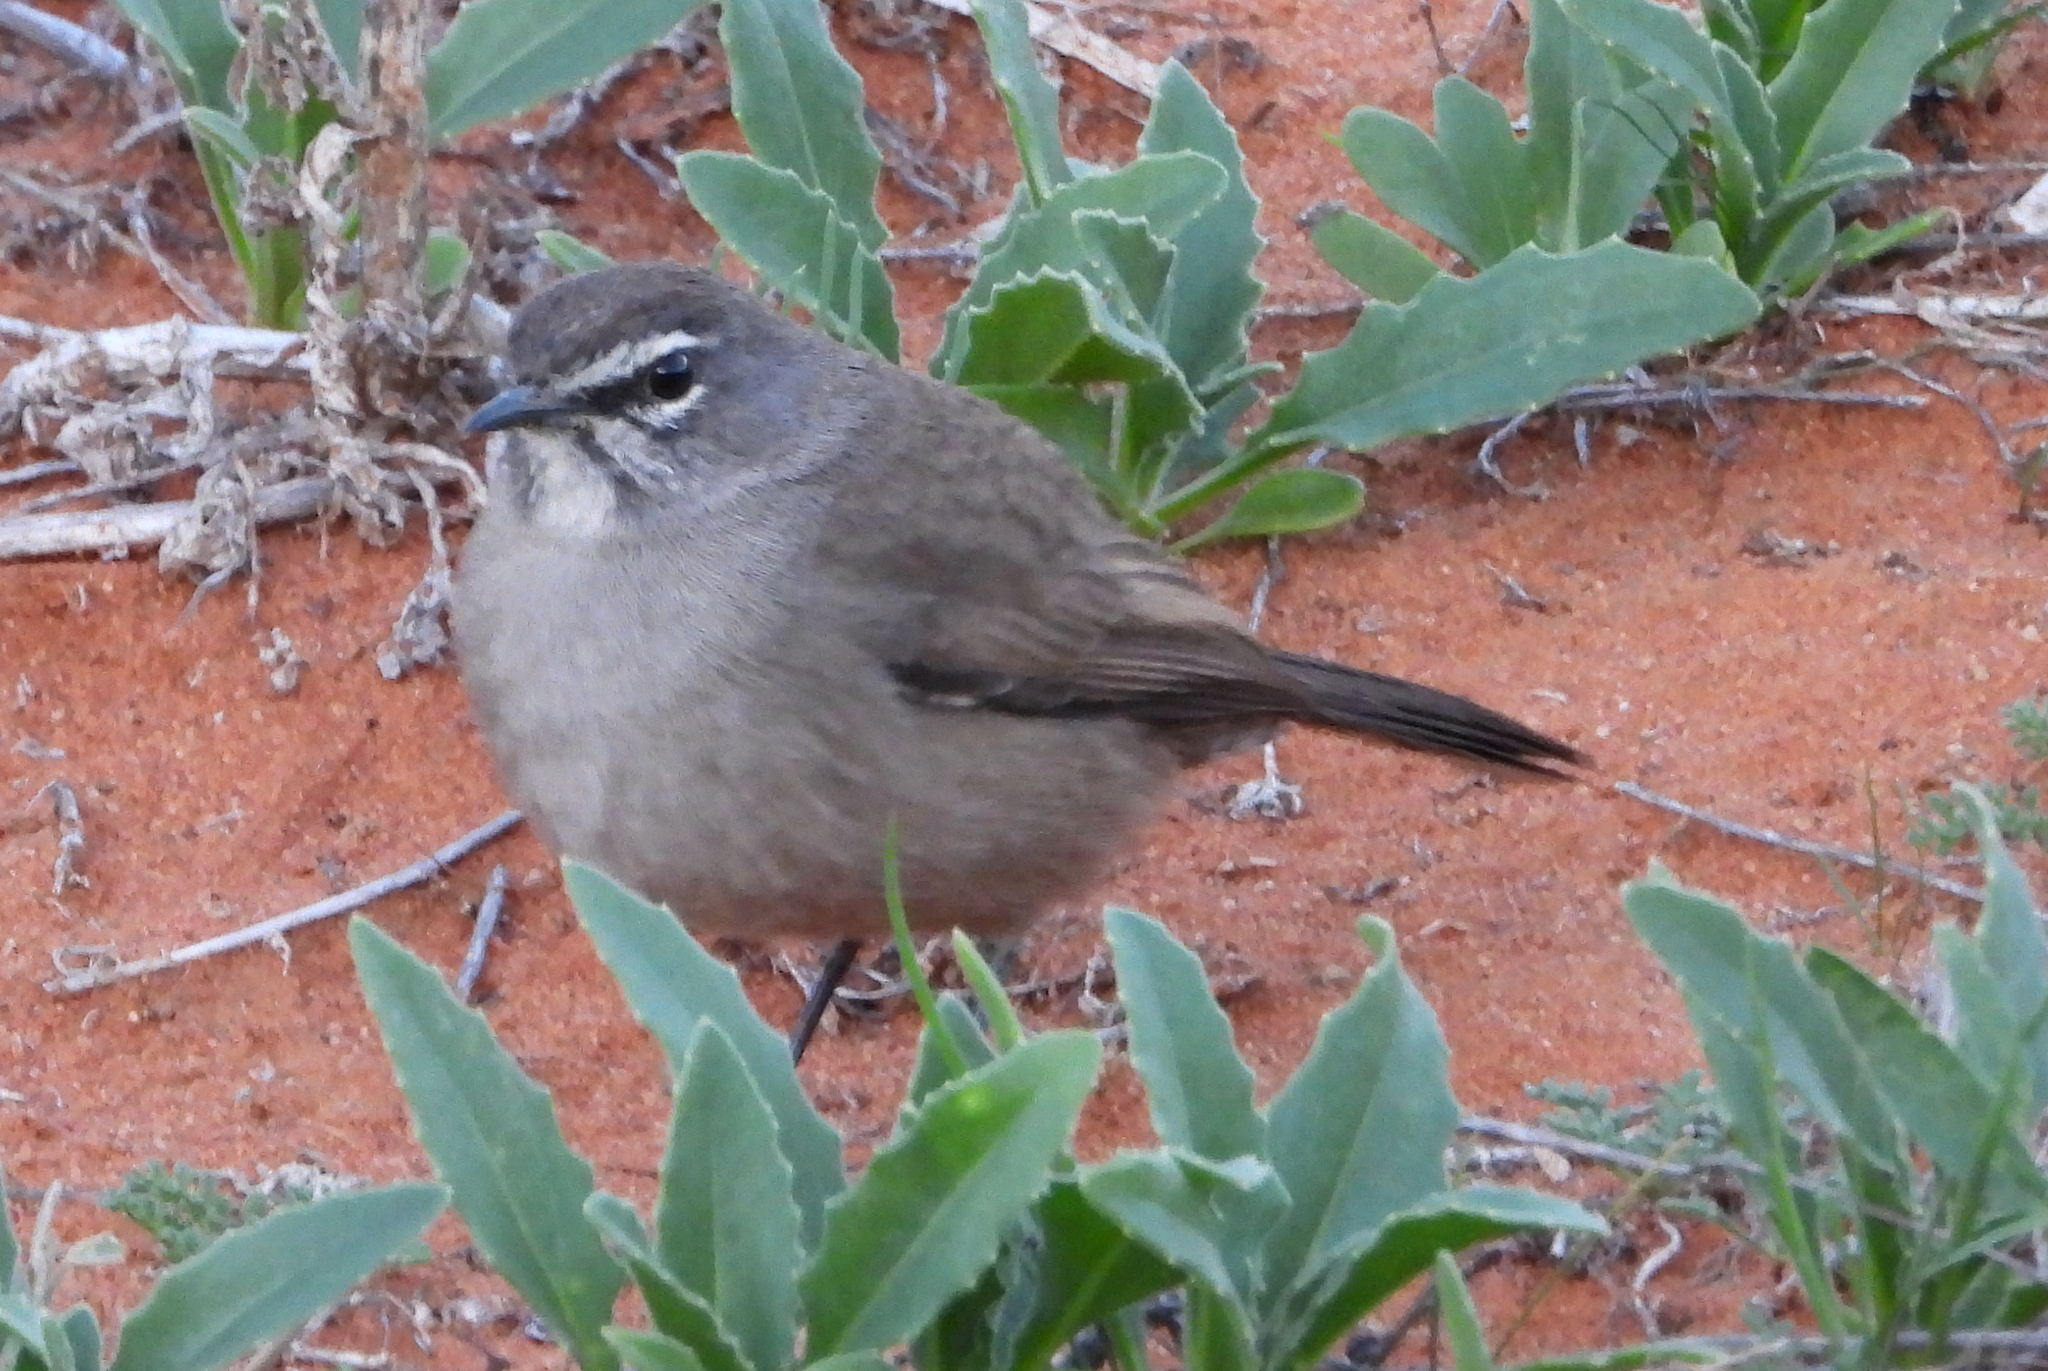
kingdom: Animalia
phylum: Chordata
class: Aves
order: Passeriformes
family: Muscicapidae
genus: Erythropygia
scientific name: Erythropygia coryphoeus
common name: Karoo scrub robin
